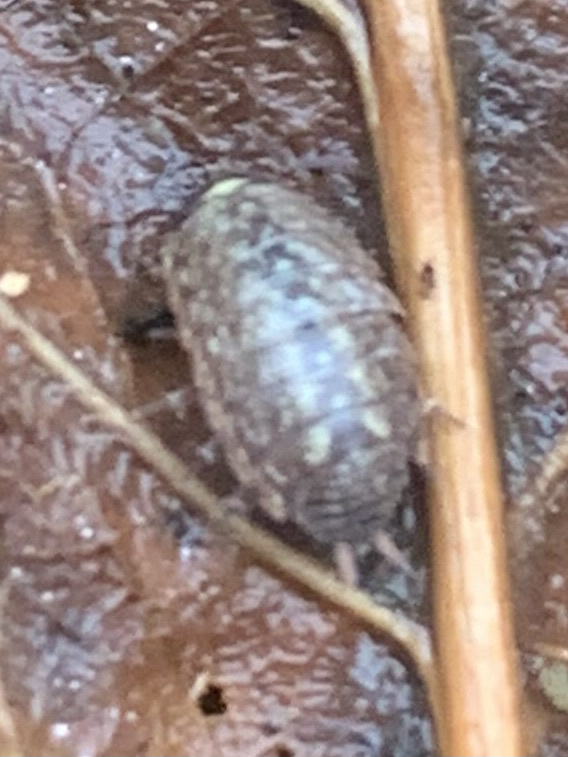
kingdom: Animalia
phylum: Arthropoda
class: Malacostraca
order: Isopoda
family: Philosciidae
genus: Philoscia
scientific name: Philoscia muscorum
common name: Common striped woodlouse
